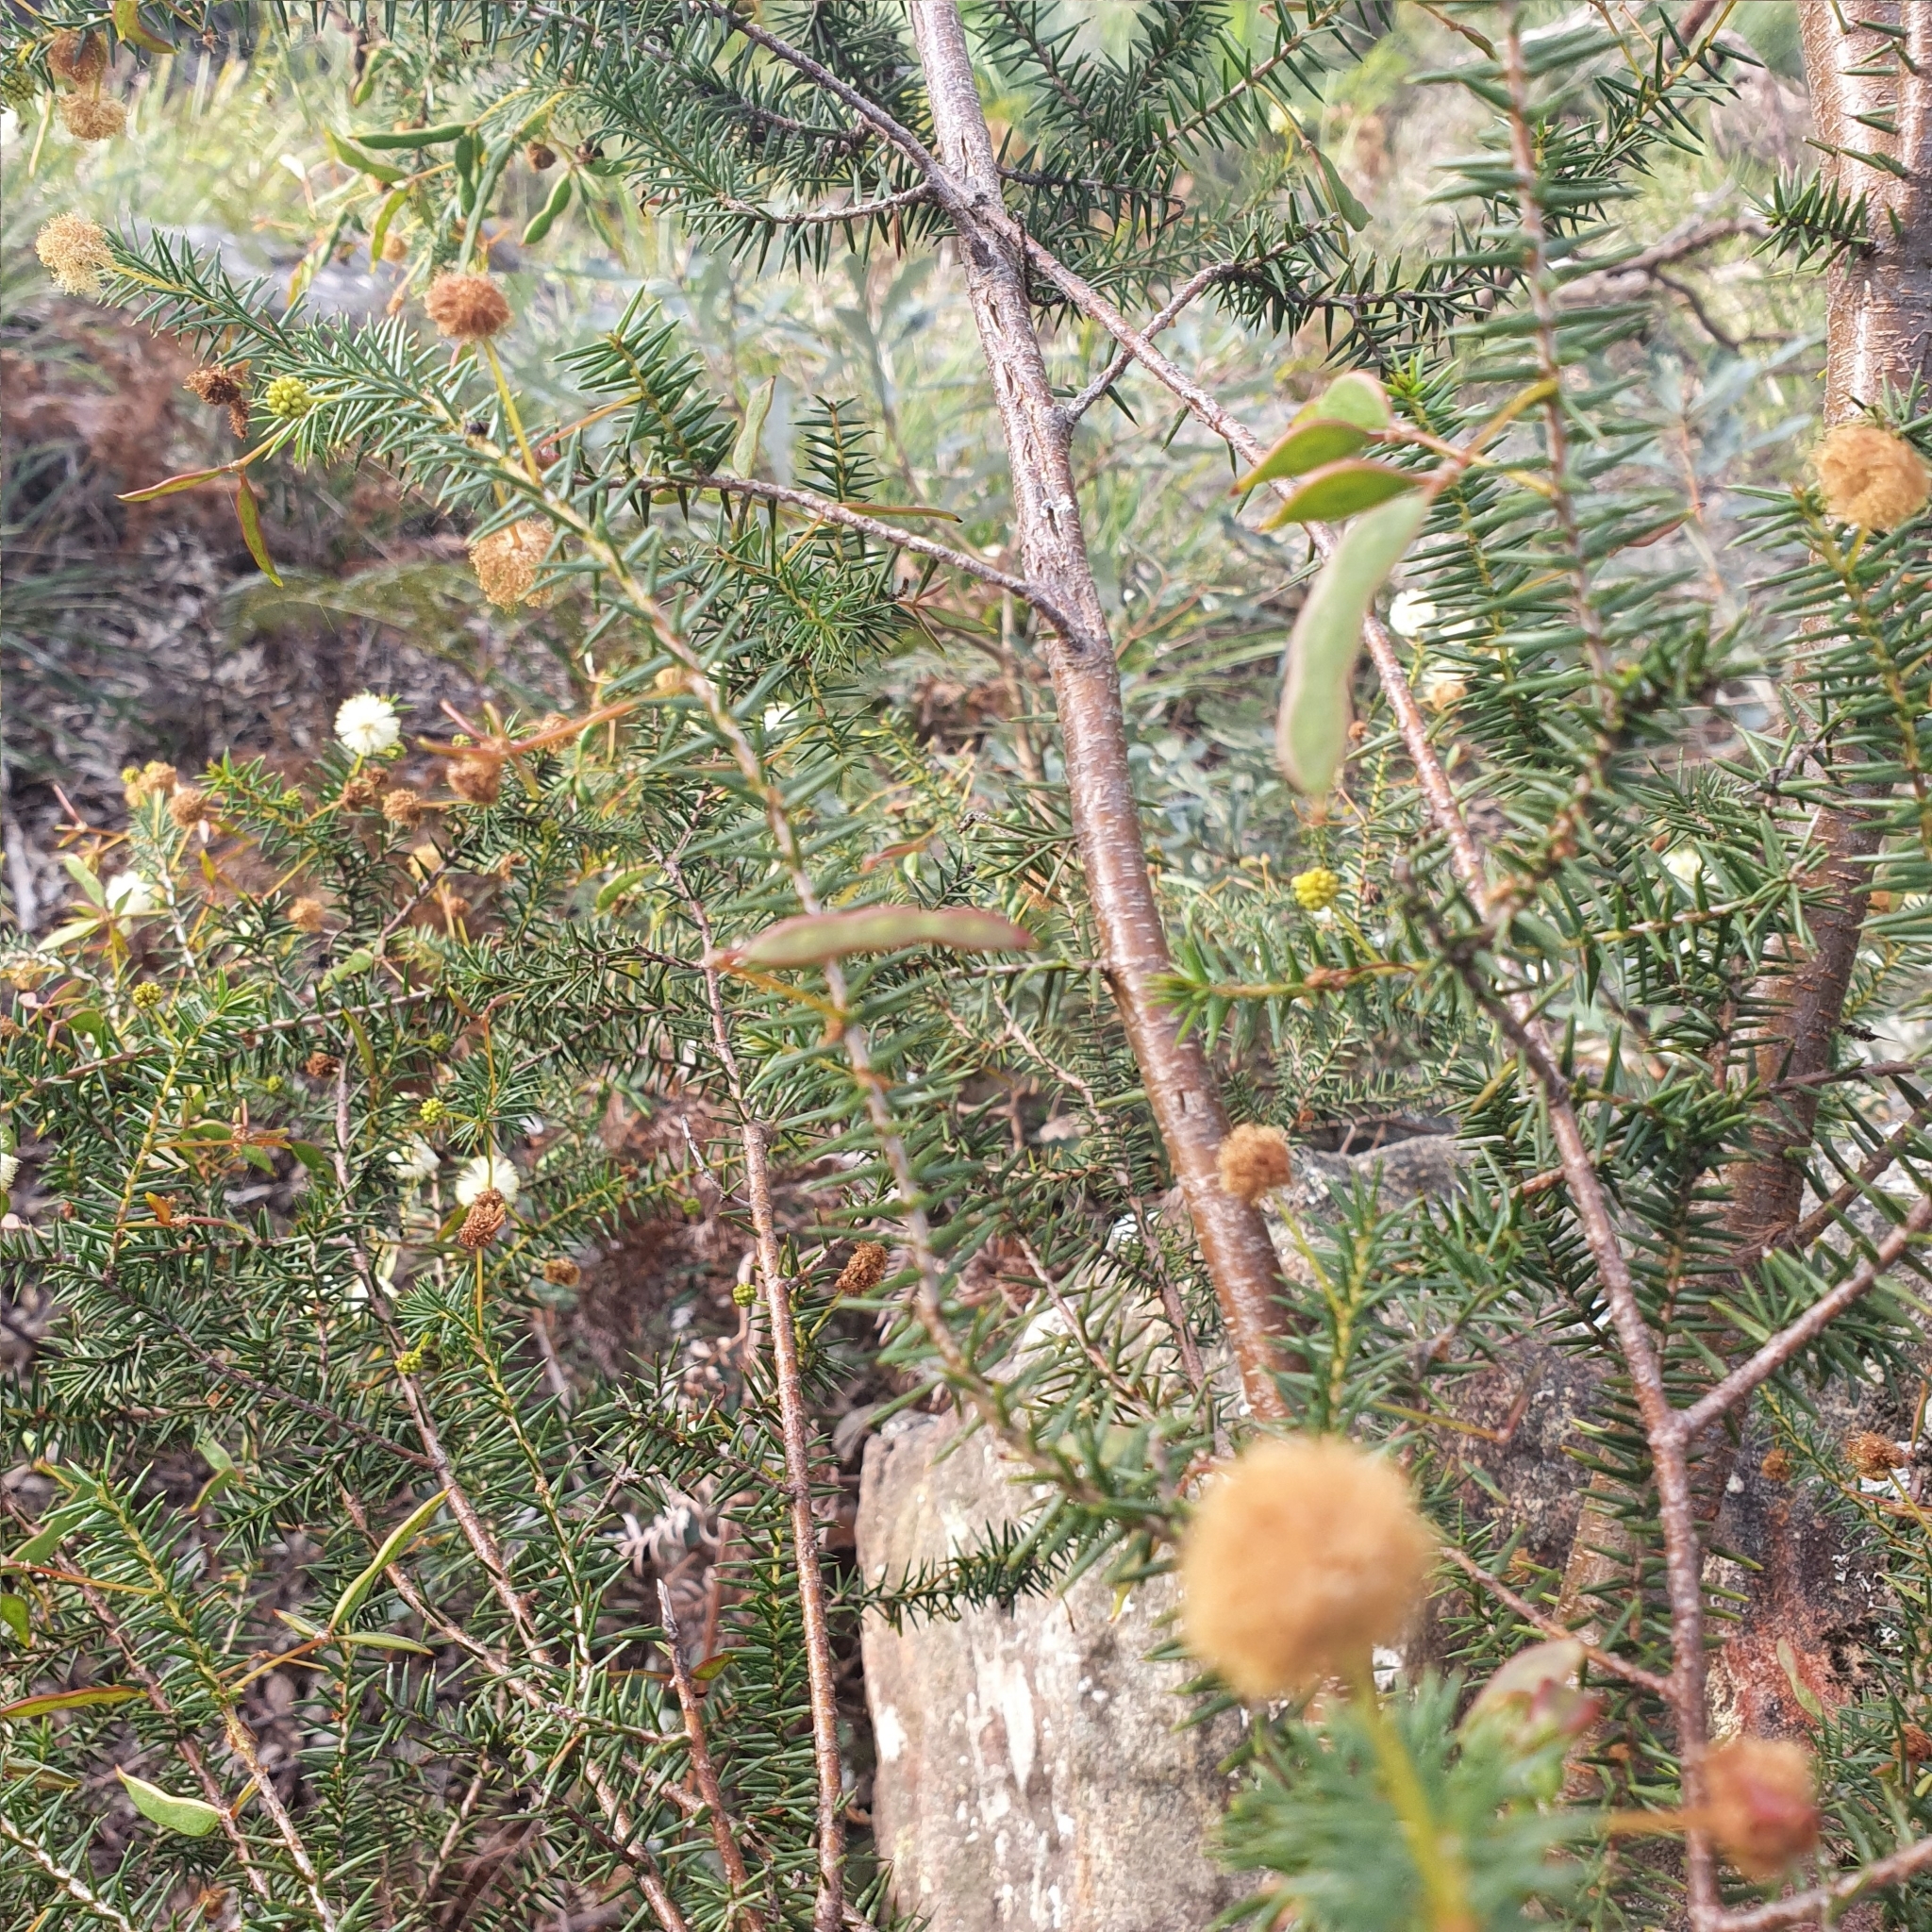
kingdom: Plantae
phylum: Tracheophyta
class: Magnoliopsida
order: Fabales
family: Fabaceae
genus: Acacia
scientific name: Acacia ulicifolia
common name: Juniper wattle
